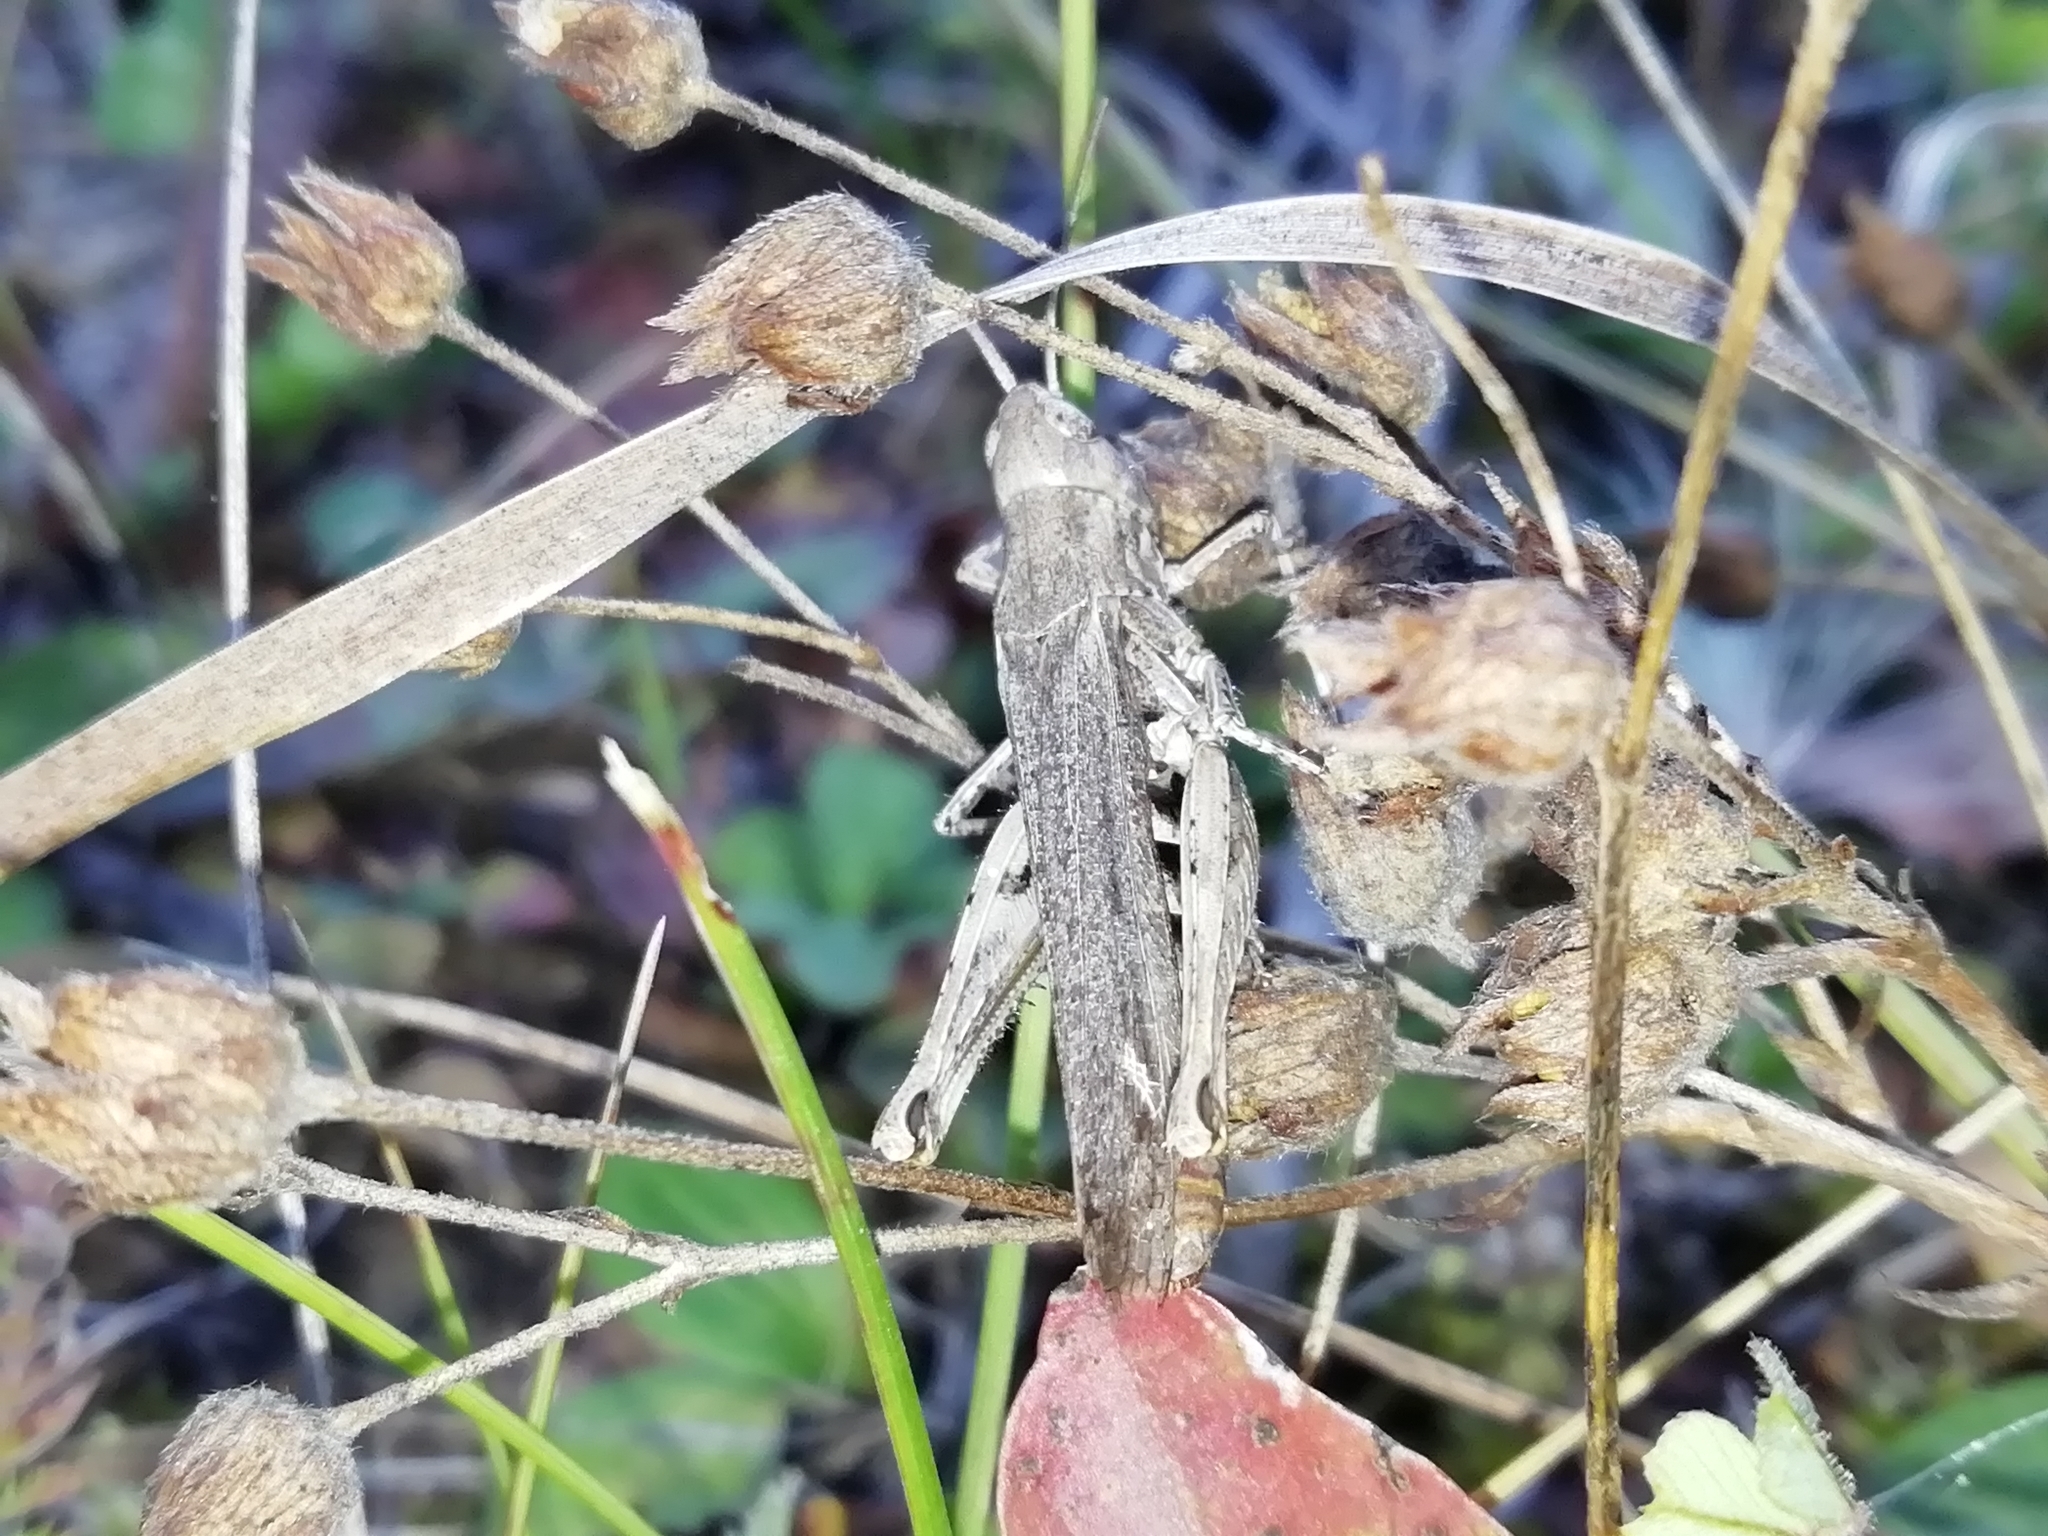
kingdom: Animalia
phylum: Arthropoda
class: Insecta
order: Orthoptera
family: Acrididae
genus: Chorthippus
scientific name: Chorthippus biguttulus
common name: Bow-winged grasshopper
